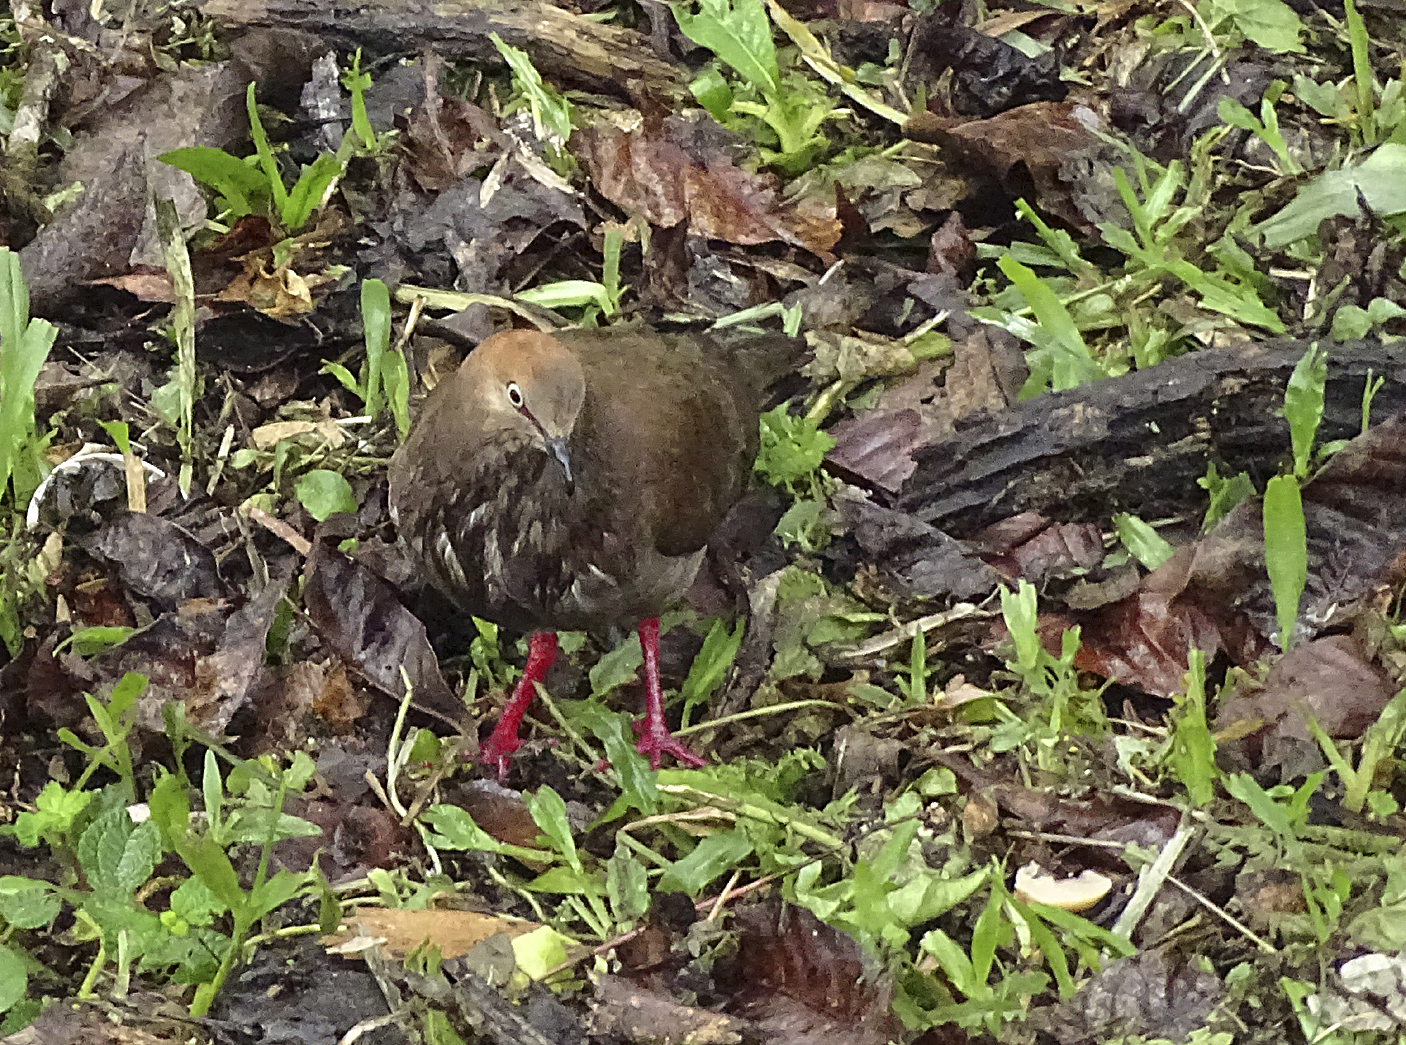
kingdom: Animalia
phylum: Chordata
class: Aves
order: Columbiformes
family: Columbidae
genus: Leptotila
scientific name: Leptotila cassinii
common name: Grey-chested dove
